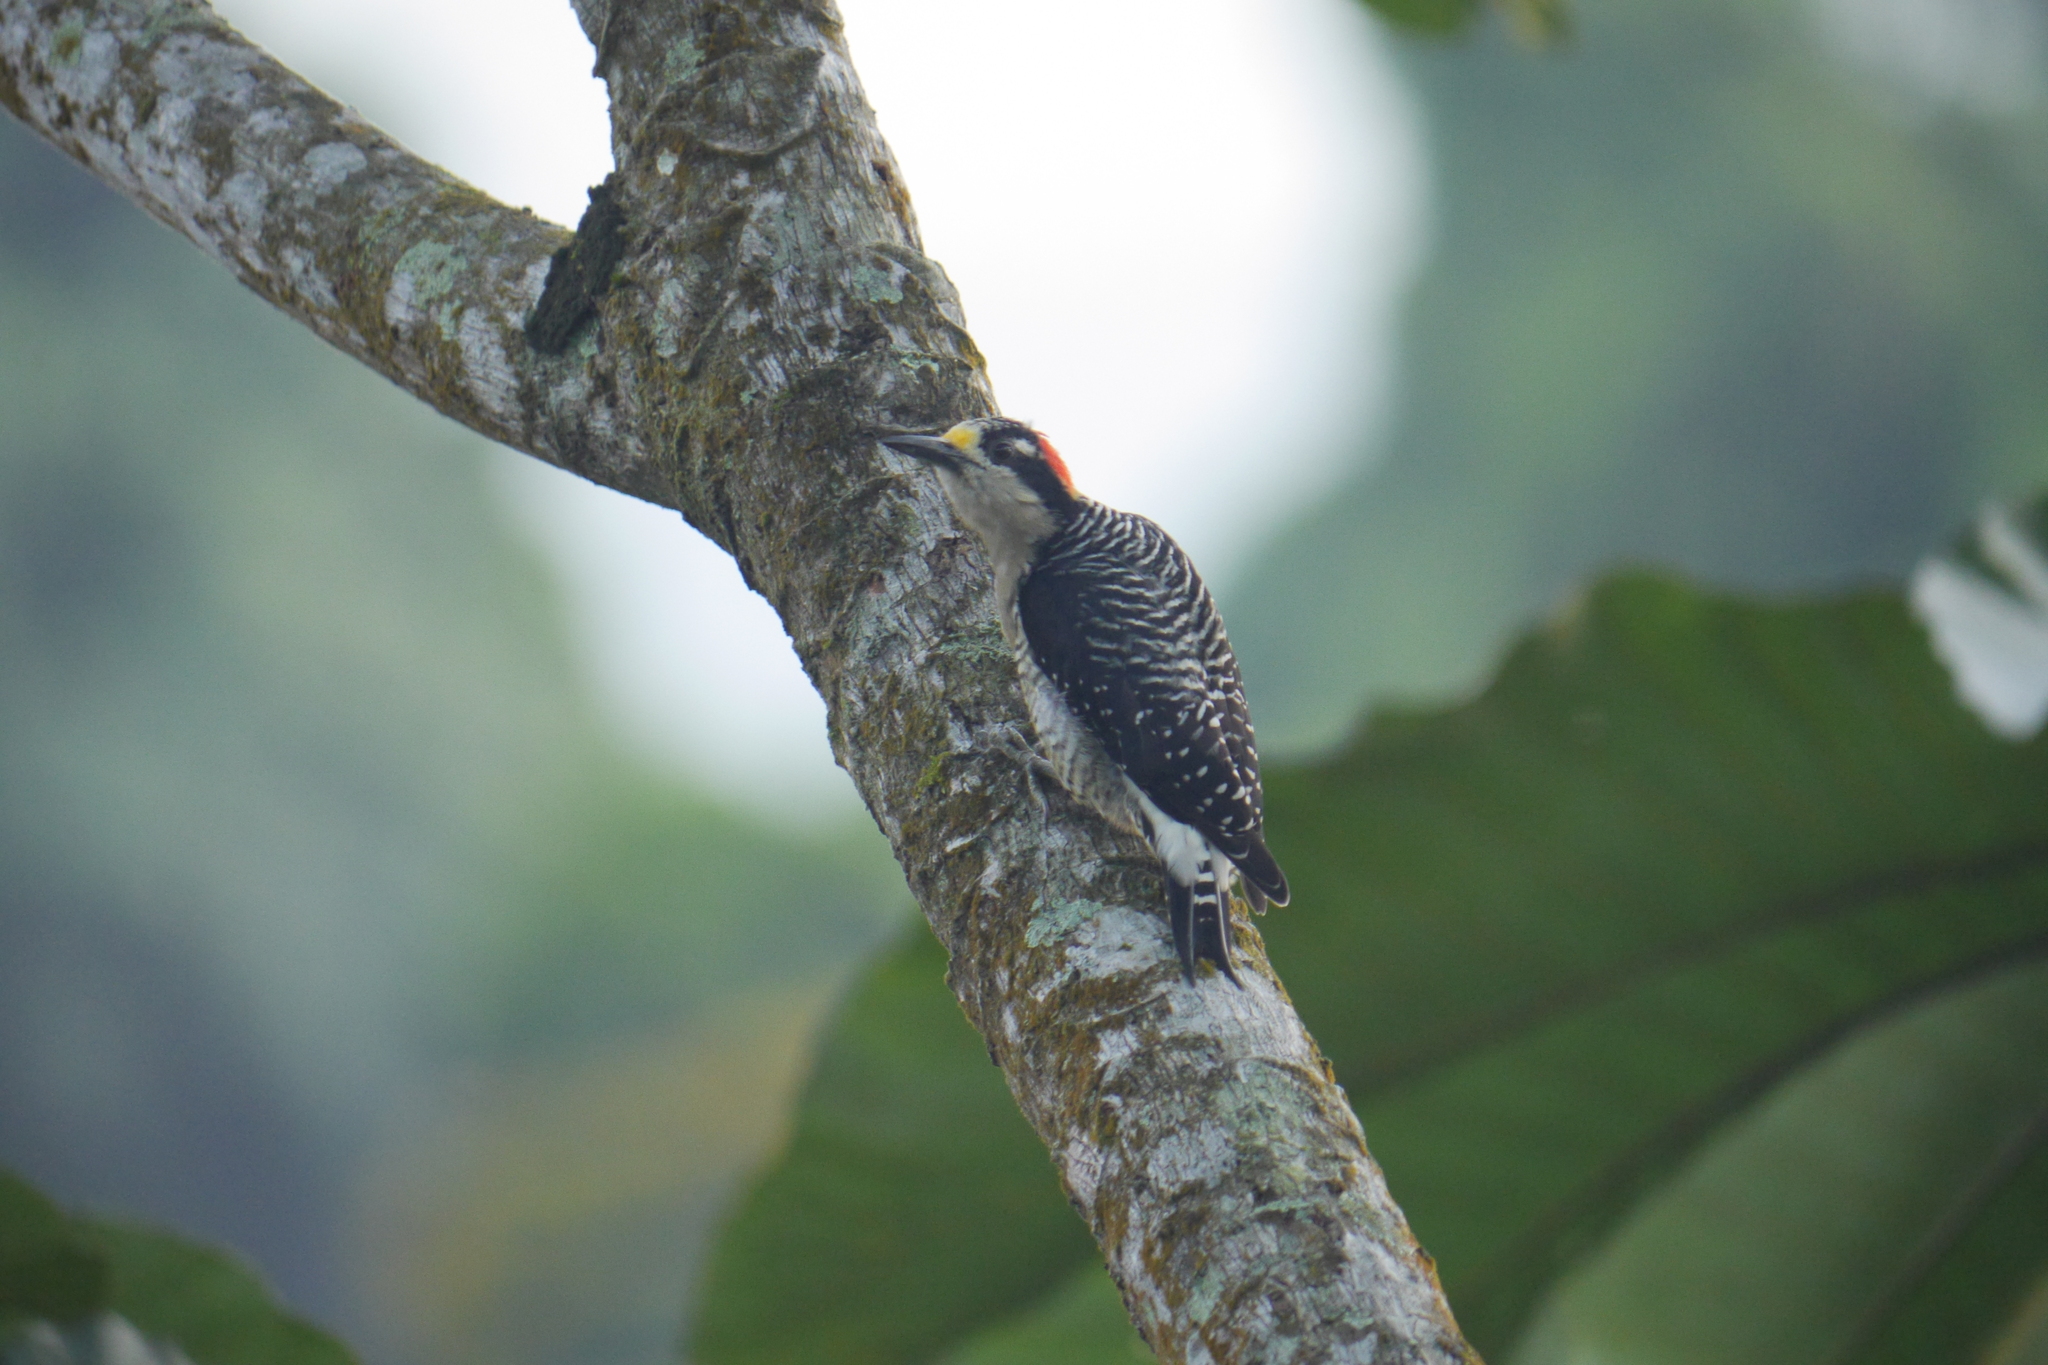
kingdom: Animalia
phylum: Chordata
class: Aves
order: Piciformes
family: Picidae
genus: Melanerpes
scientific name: Melanerpes pucherani
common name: Black-cheeked woodpecker
